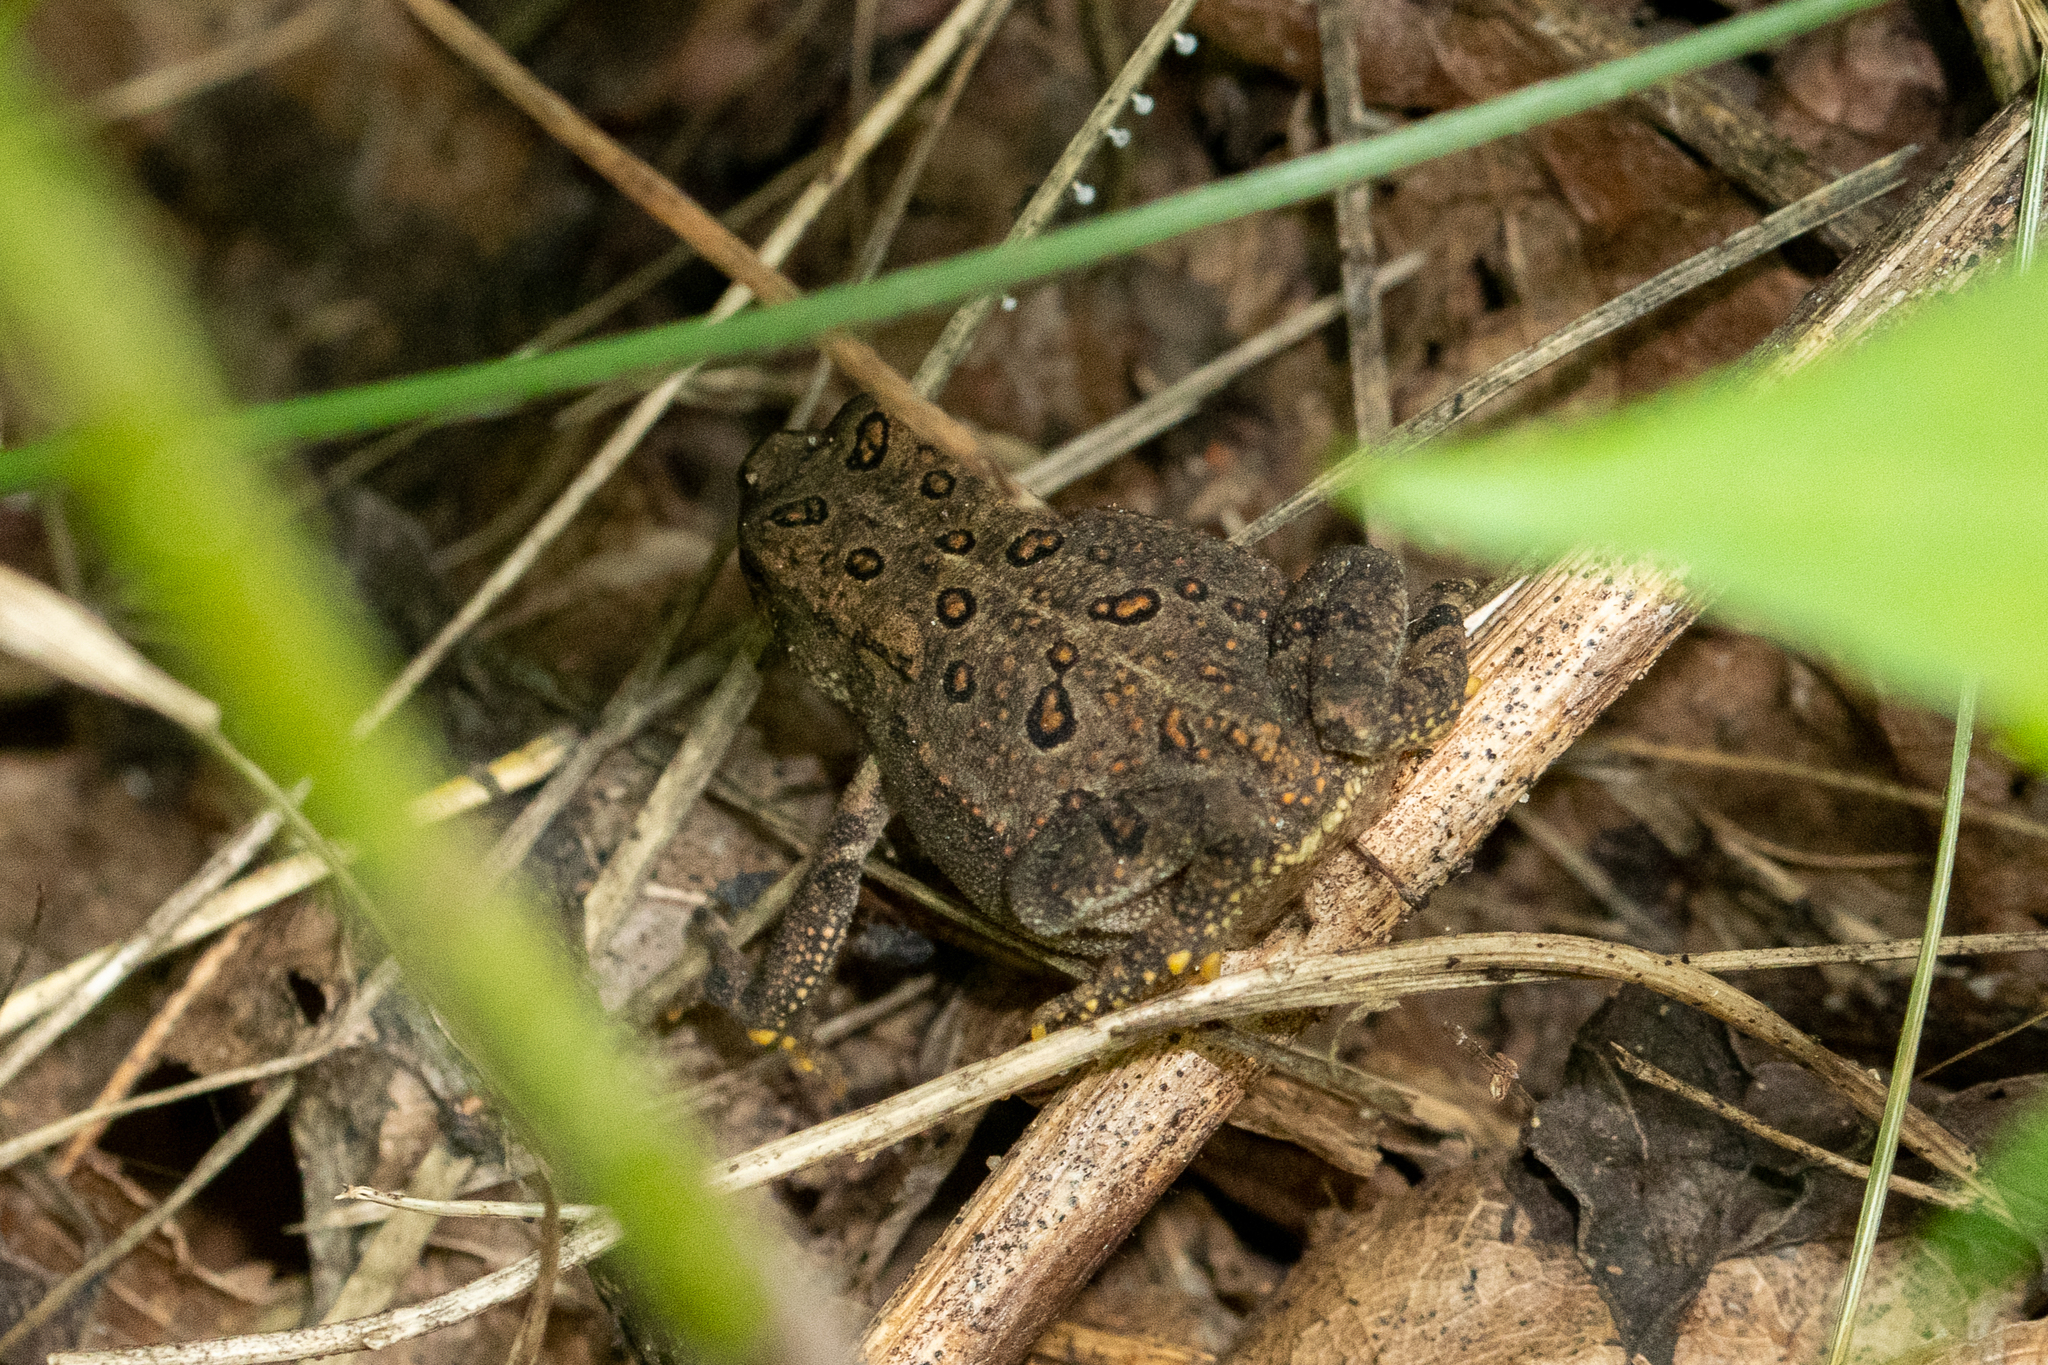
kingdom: Animalia
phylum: Chordata
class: Amphibia
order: Anura
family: Bufonidae
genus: Anaxyrus
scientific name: Anaxyrus americanus
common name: American toad
